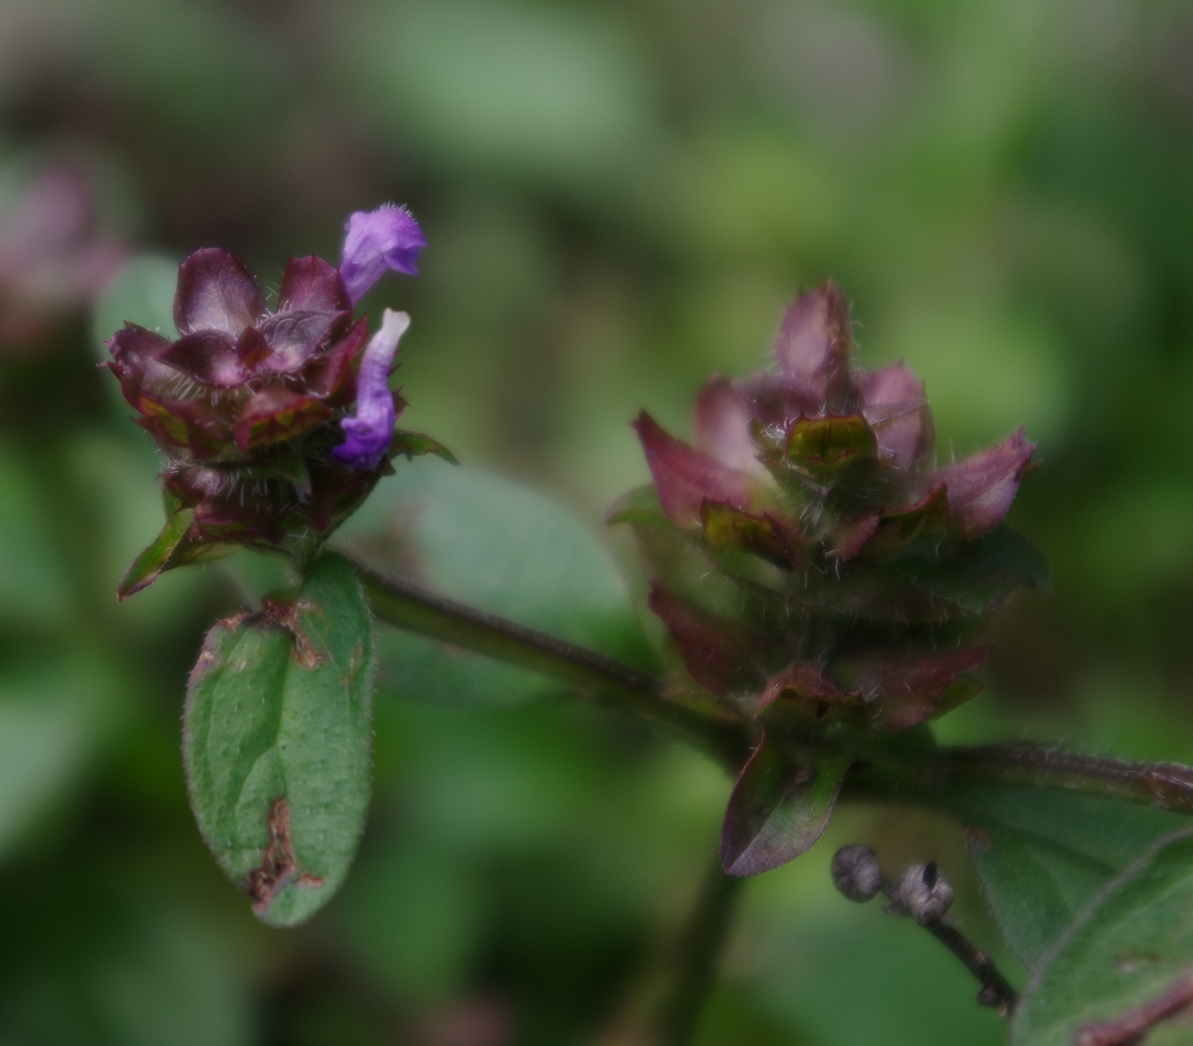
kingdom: Plantae
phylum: Tracheophyta
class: Magnoliopsida
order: Lamiales
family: Lamiaceae
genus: Prunella
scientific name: Prunella vulgaris
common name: Heal-all
